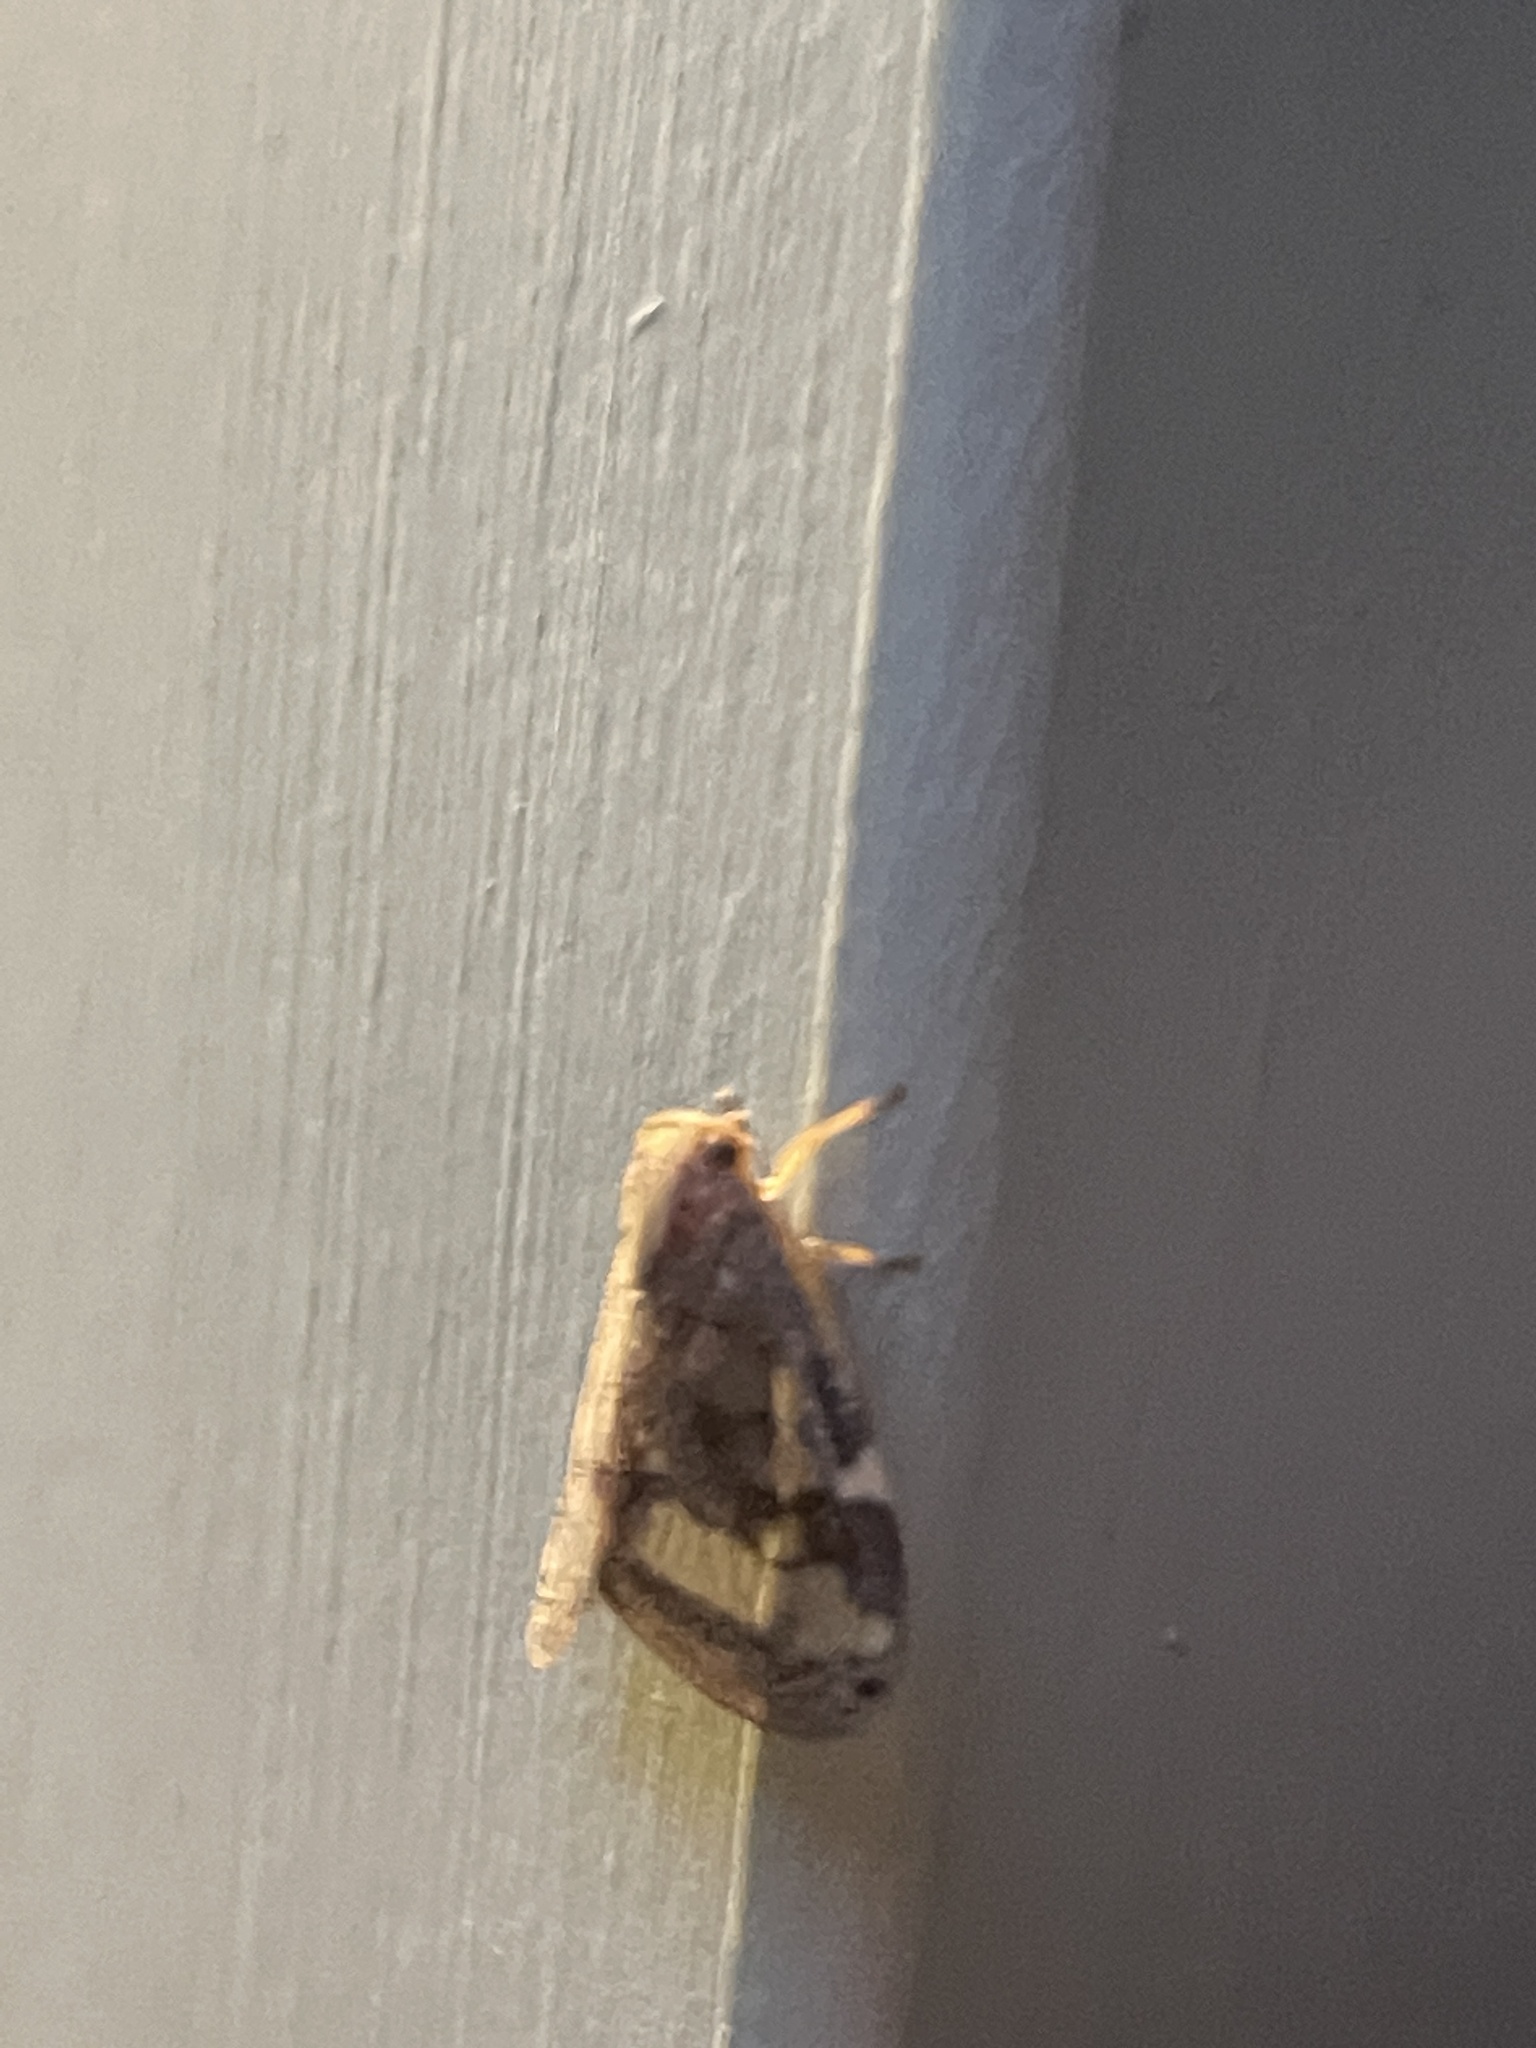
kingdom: Animalia
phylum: Arthropoda
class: Insecta
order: Hemiptera
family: Ricaniidae
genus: Scolypopa
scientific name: Scolypopa australis
